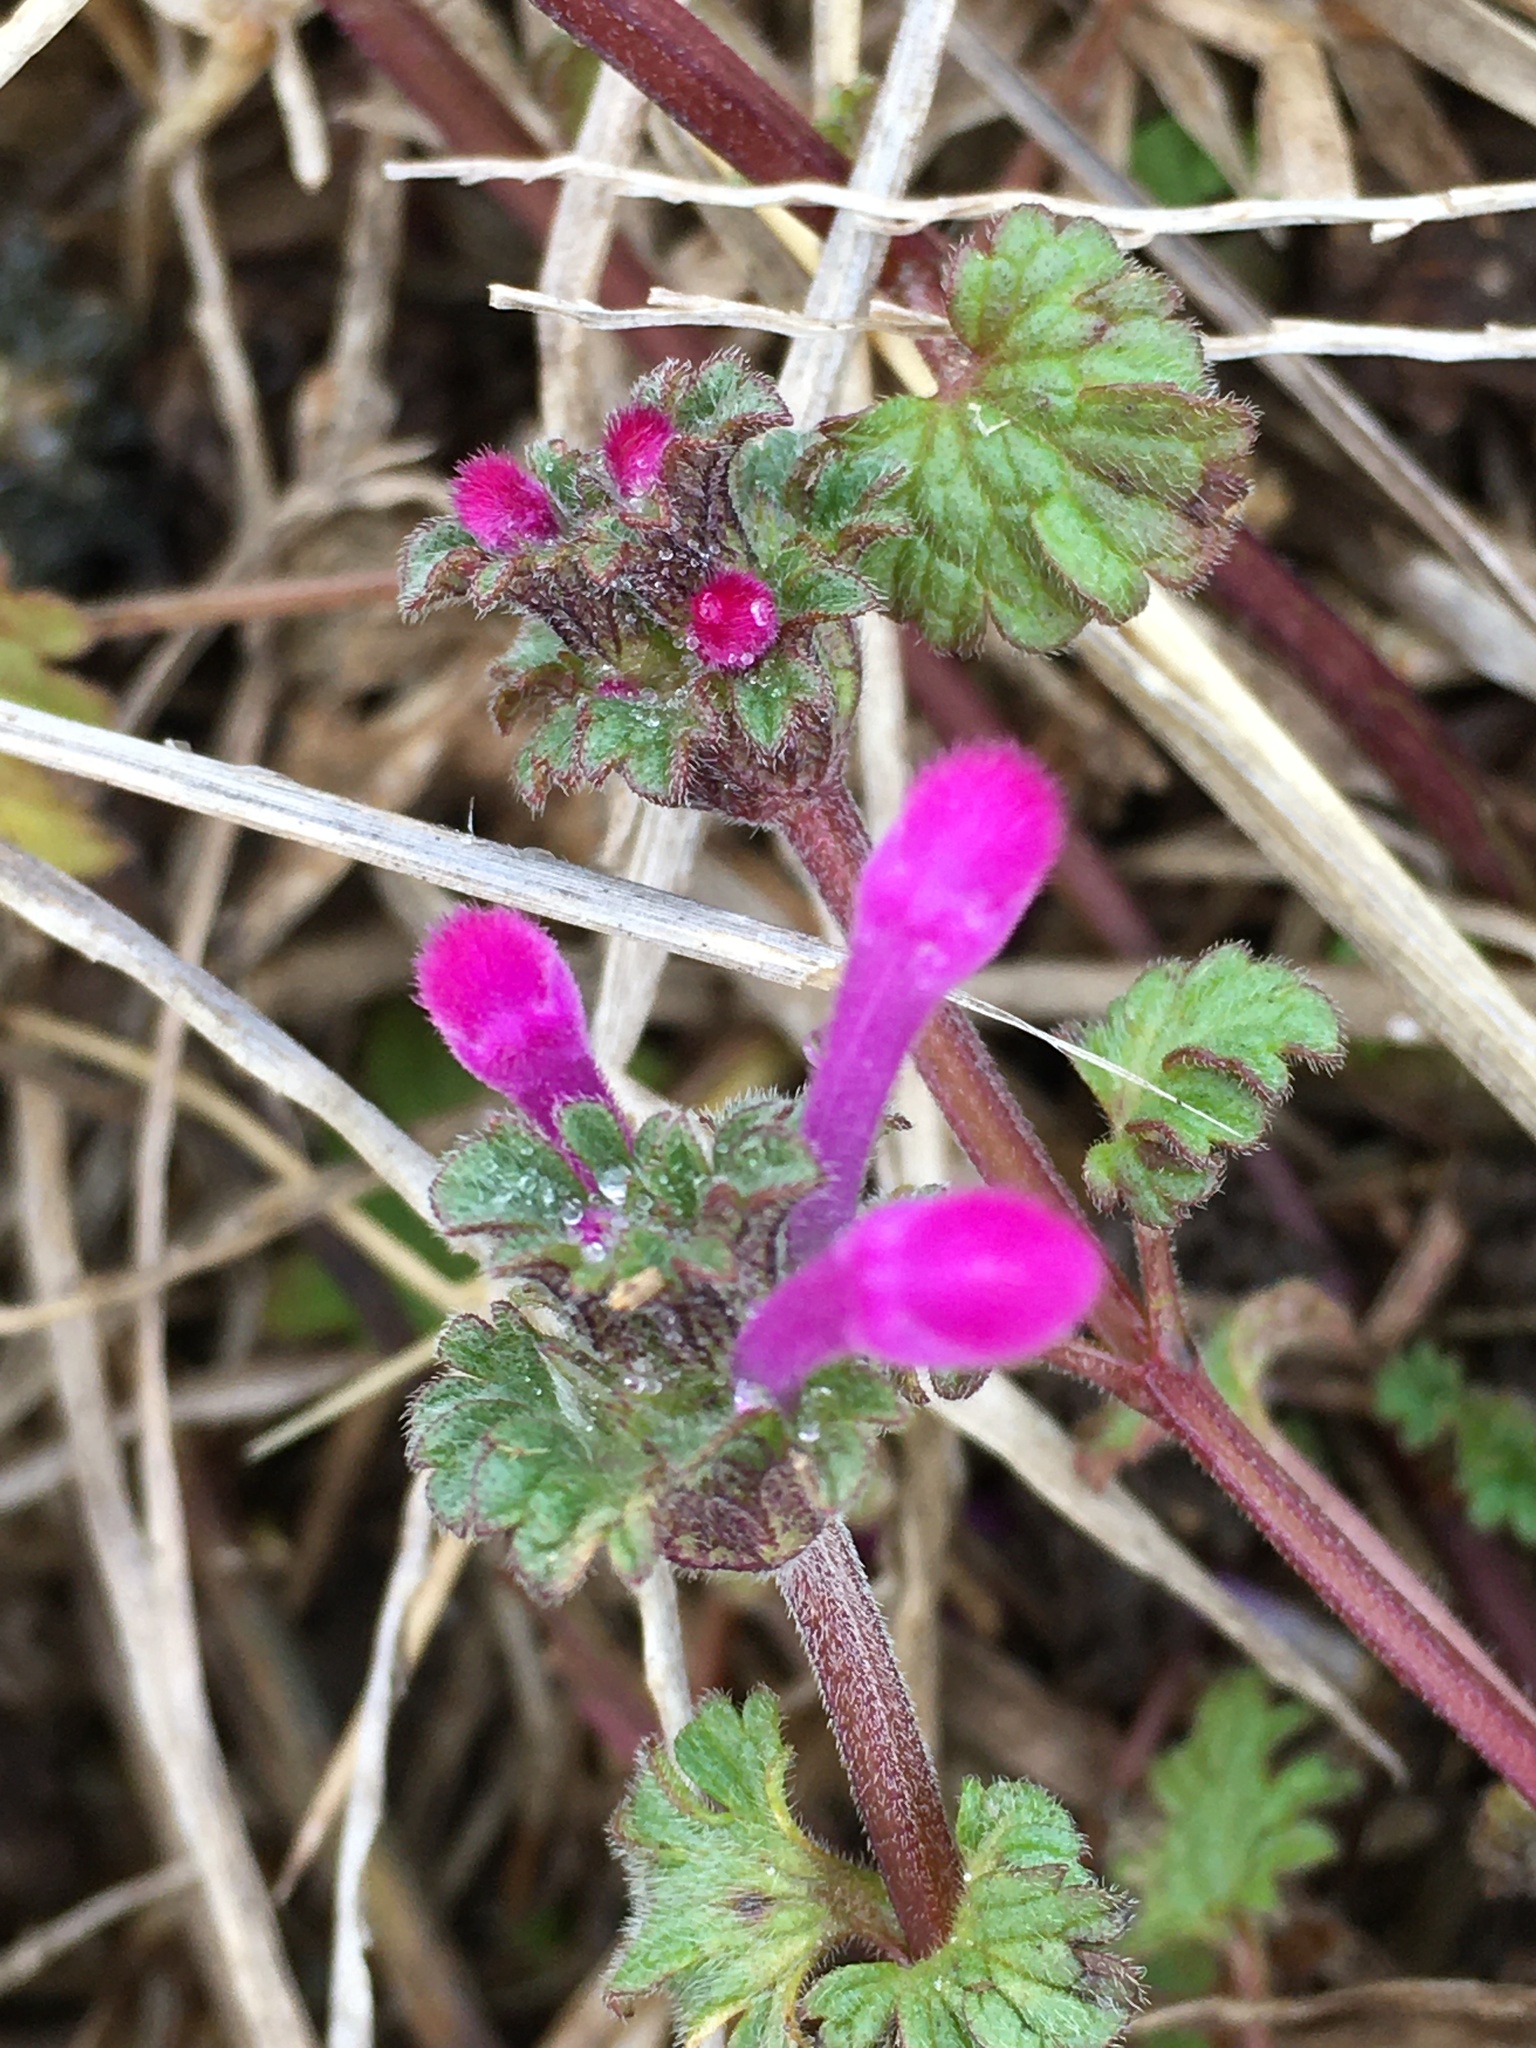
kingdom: Plantae
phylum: Tracheophyta
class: Magnoliopsida
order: Lamiales
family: Lamiaceae
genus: Lamium
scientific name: Lamium amplexicaule
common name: Henbit dead-nettle
